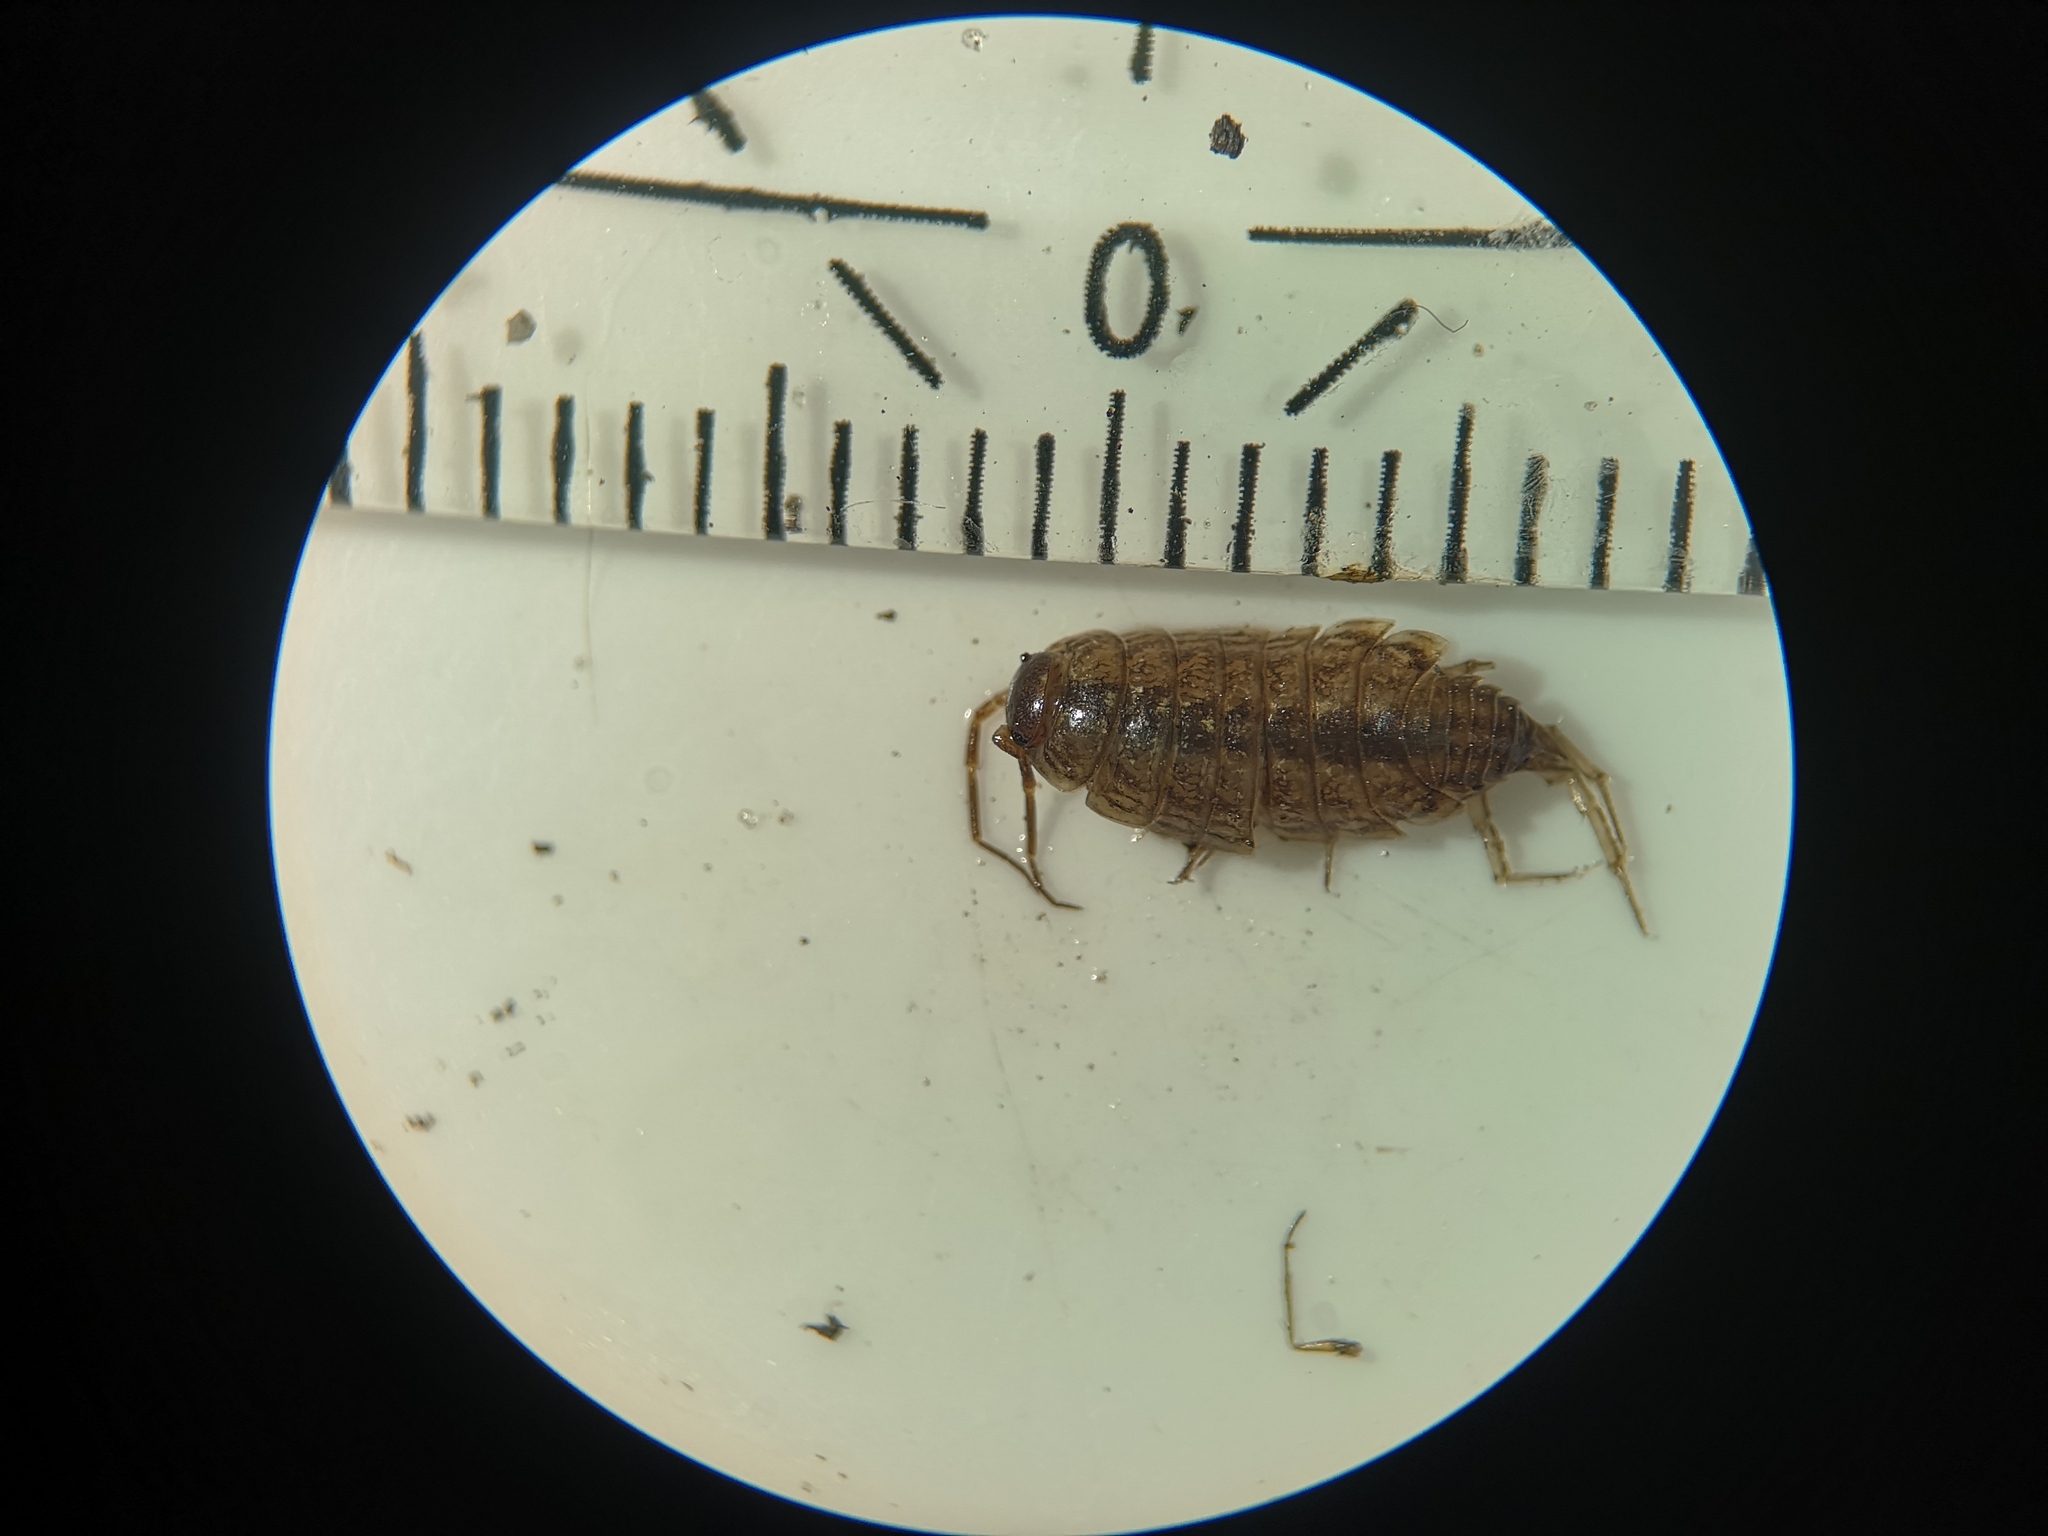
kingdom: Animalia
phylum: Arthropoda
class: Malacostraca
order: Isopoda
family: Philosciidae
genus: Philoscia
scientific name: Philoscia muscorum
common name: Common striped woodlouse
